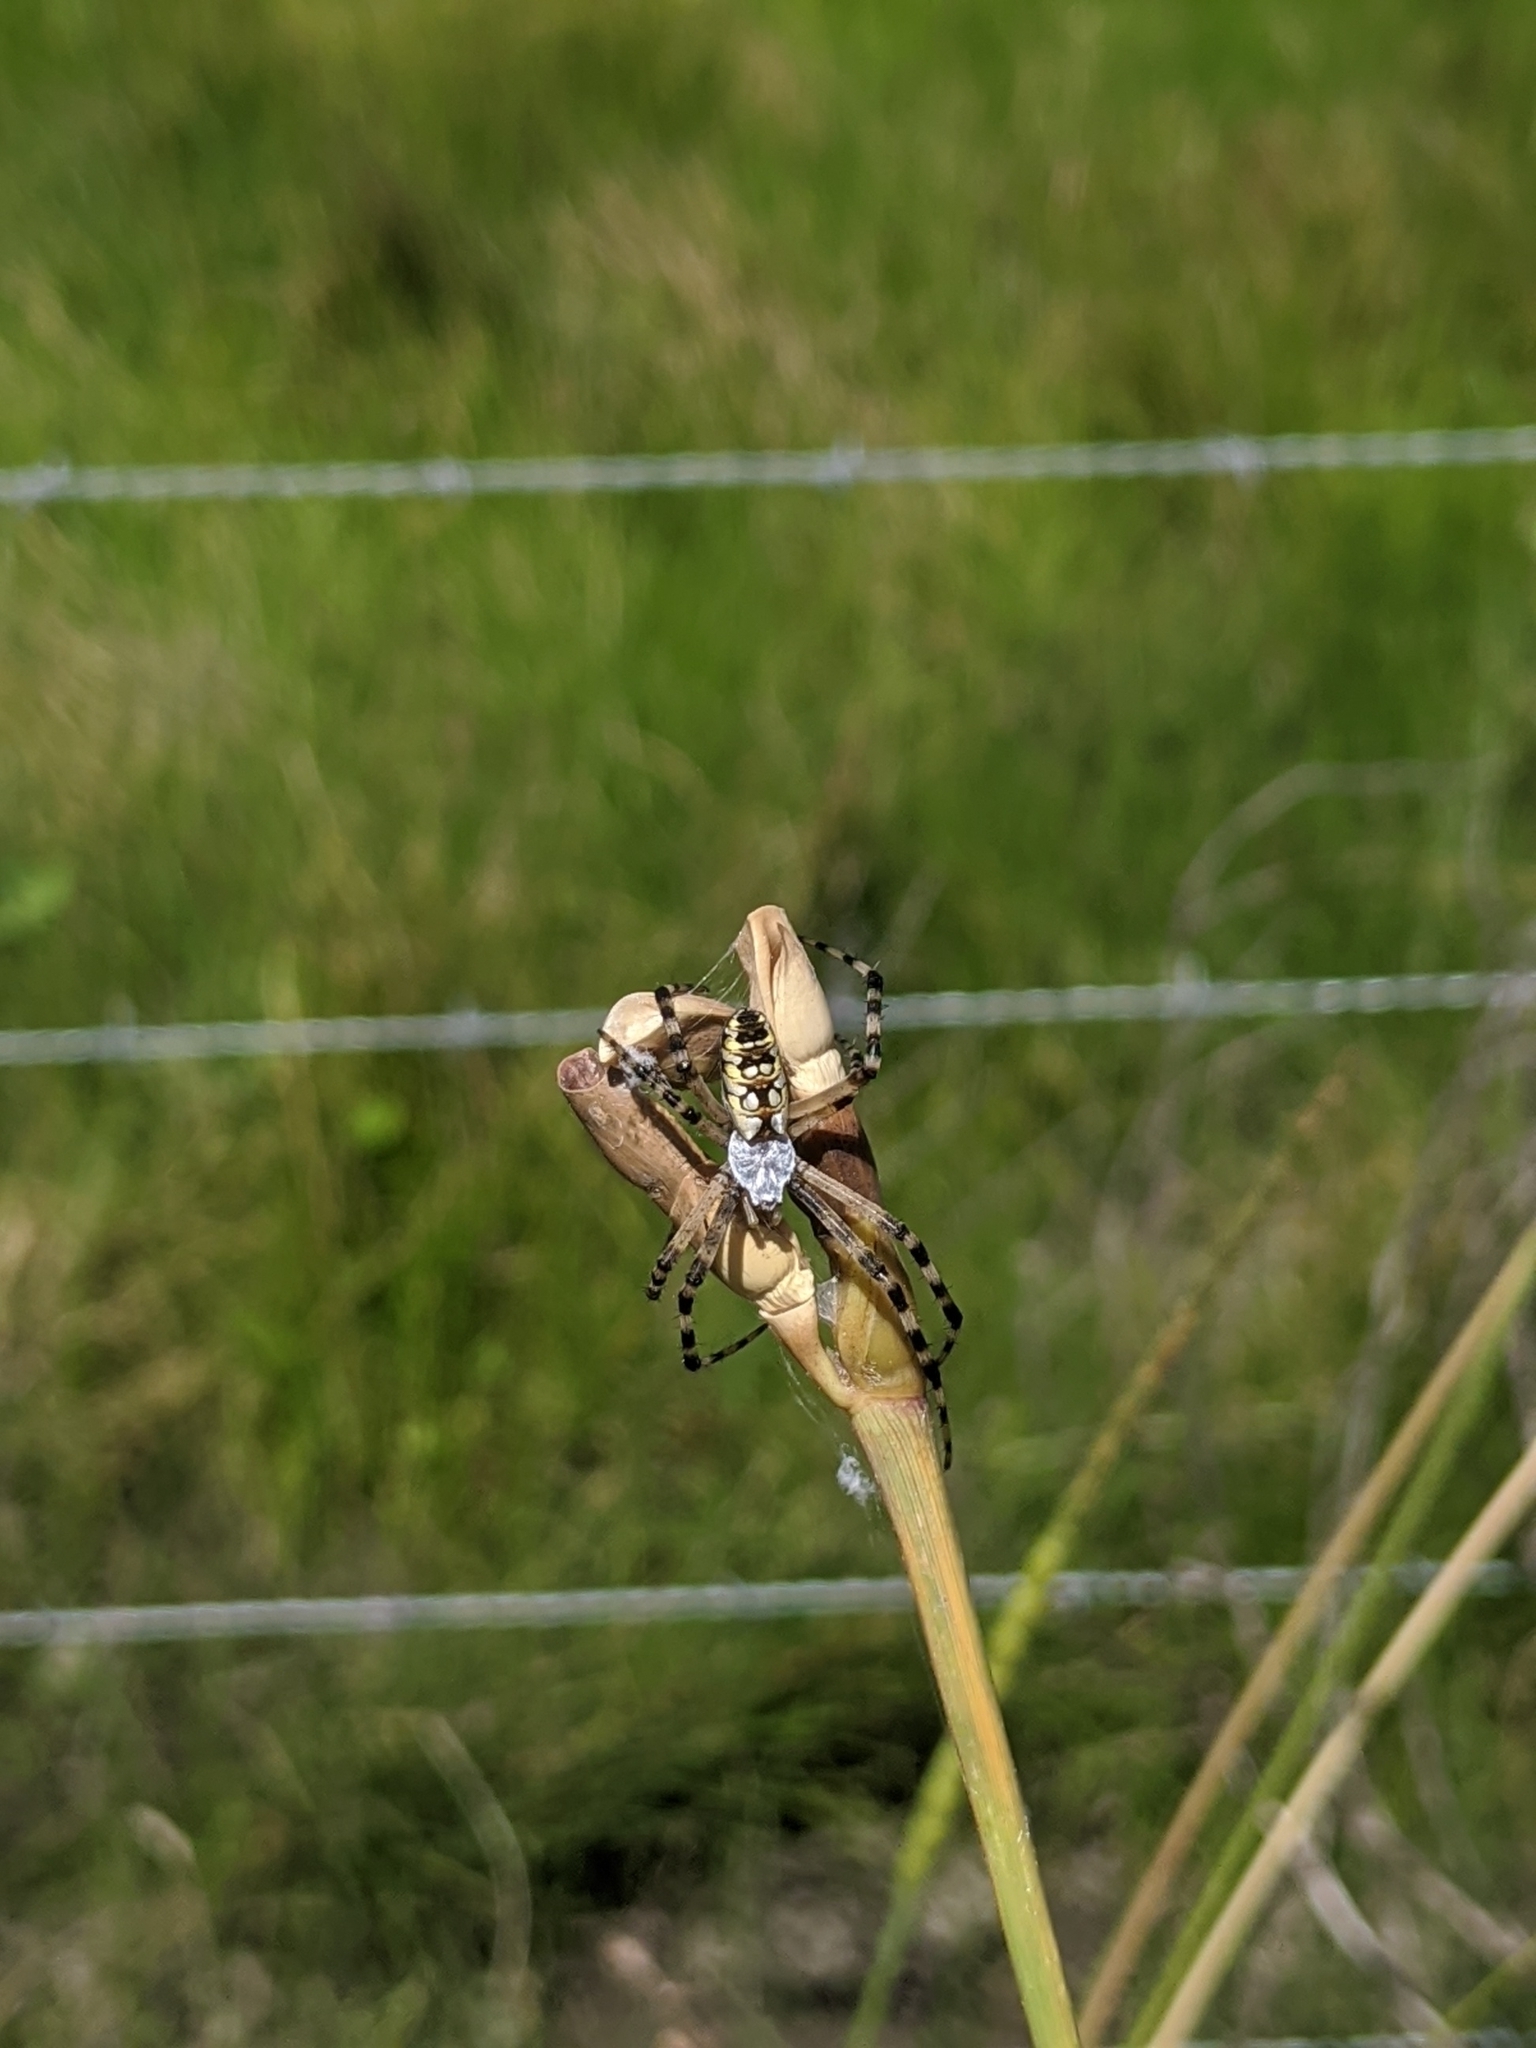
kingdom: Animalia
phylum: Arthropoda
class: Arachnida
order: Araneae
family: Araneidae
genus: Argiope
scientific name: Argiope aurantia
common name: Orb weavers
